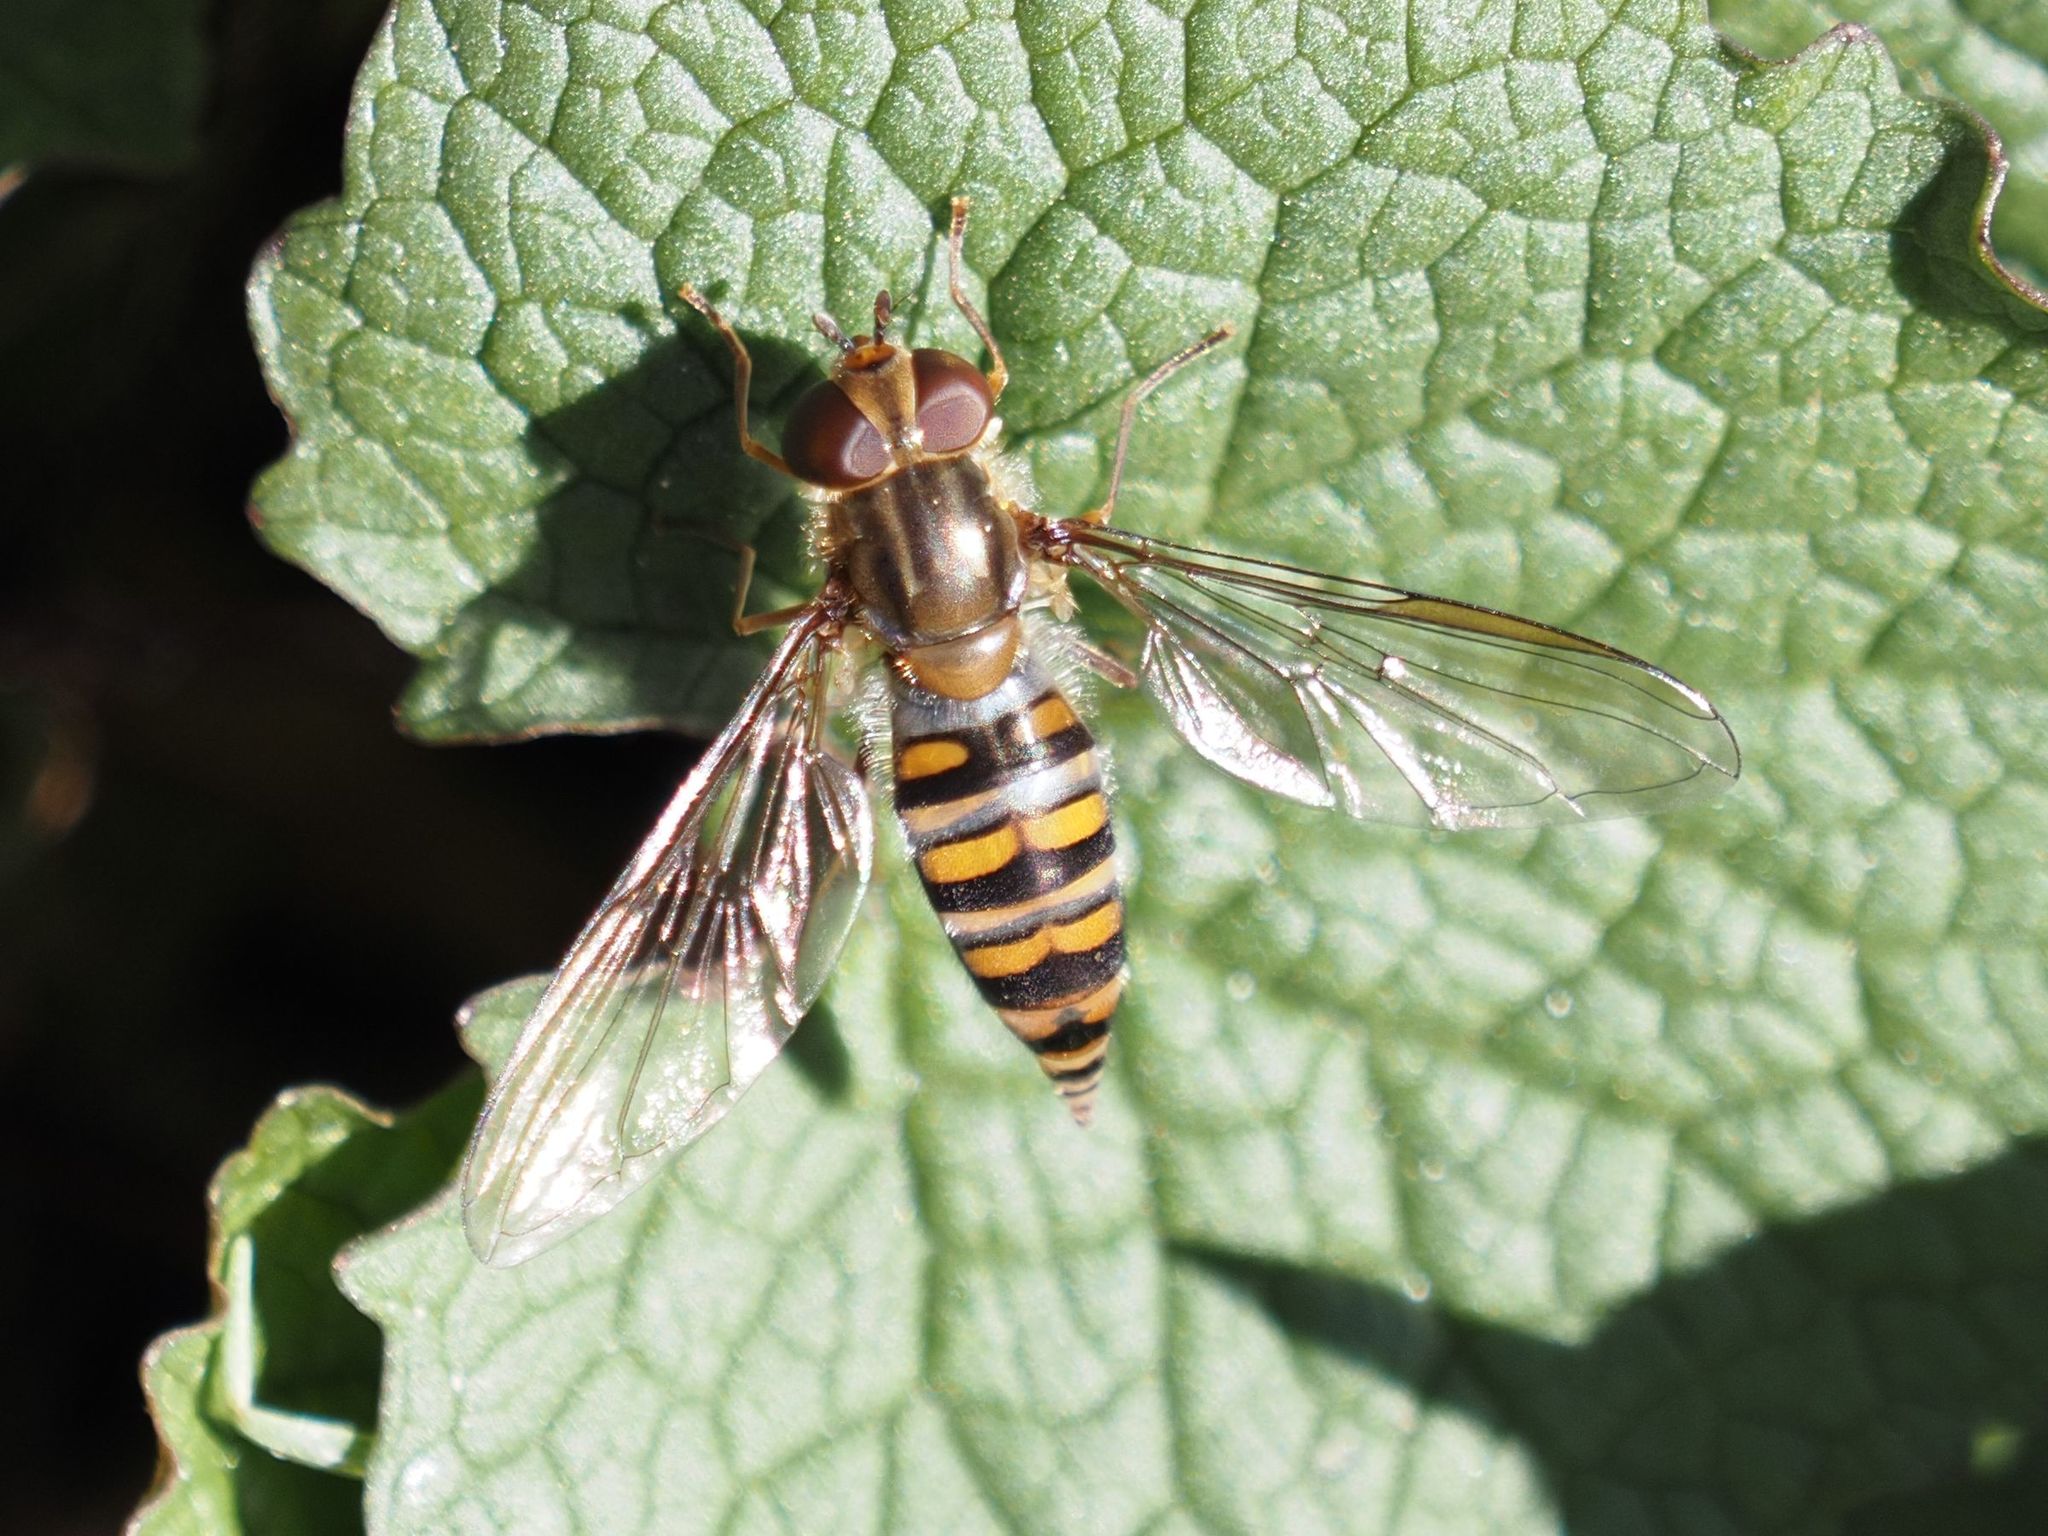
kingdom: Animalia
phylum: Arthropoda
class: Insecta
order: Diptera
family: Syrphidae
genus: Episyrphus
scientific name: Episyrphus balteatus
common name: Marmalade hoverfly
